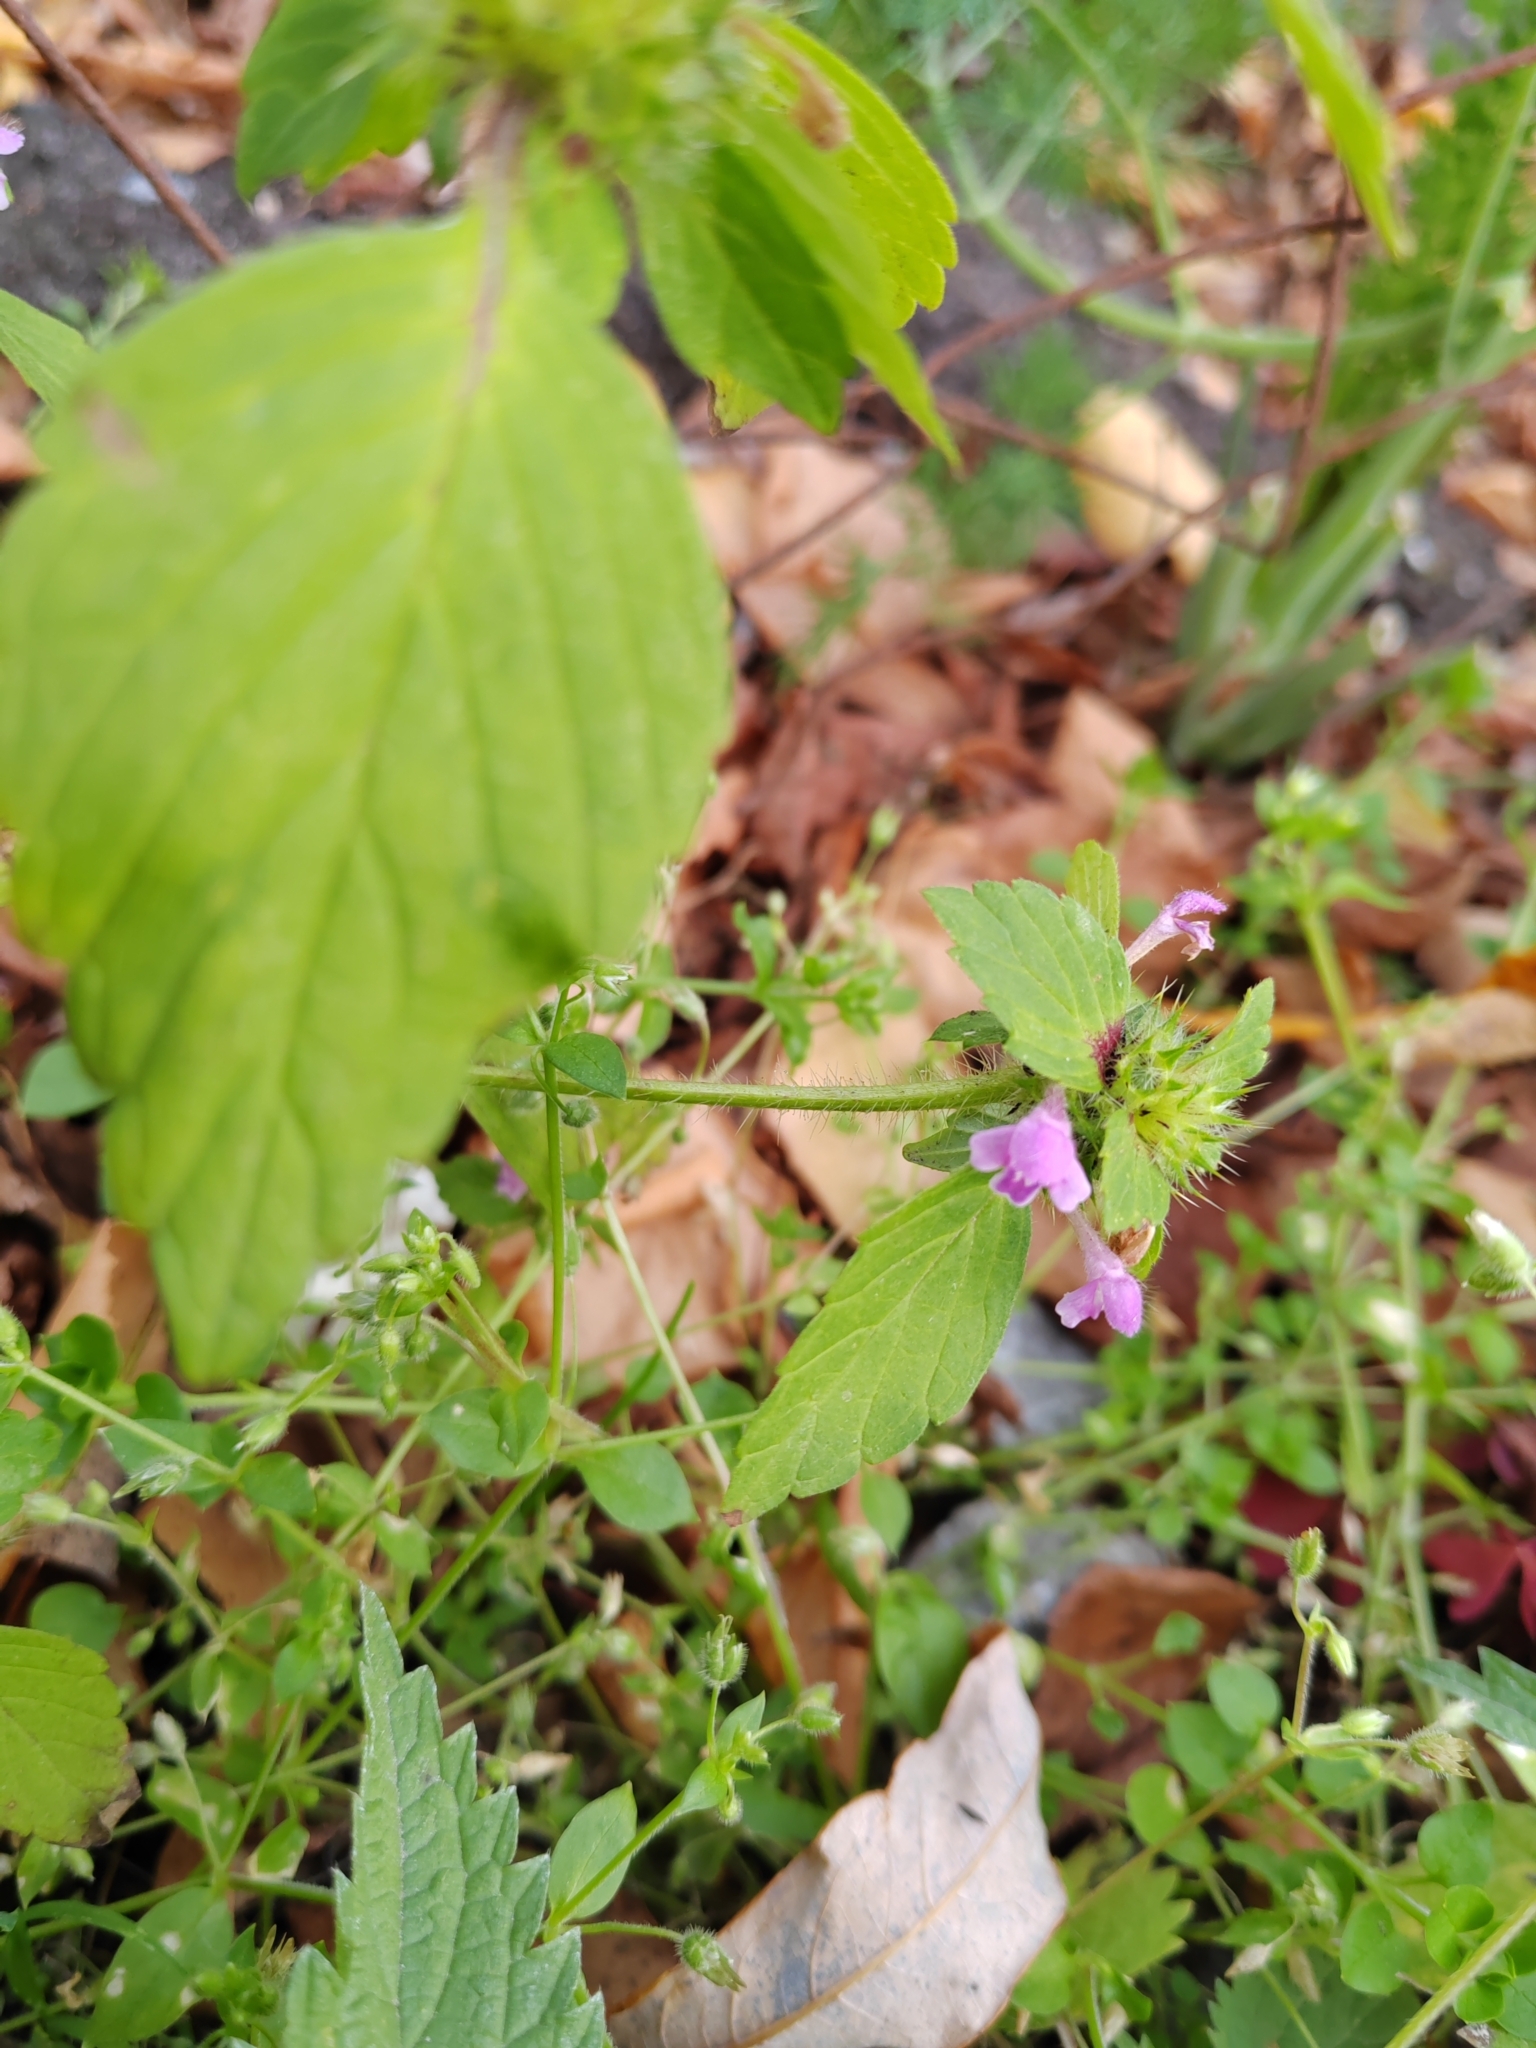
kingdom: Plantae
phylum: Tracheophyta
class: Magnoliopsida
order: Lamiales
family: Lamiaceae
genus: Galeopsis
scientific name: Galeopsis bifida
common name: Bifid hemp-nettle
